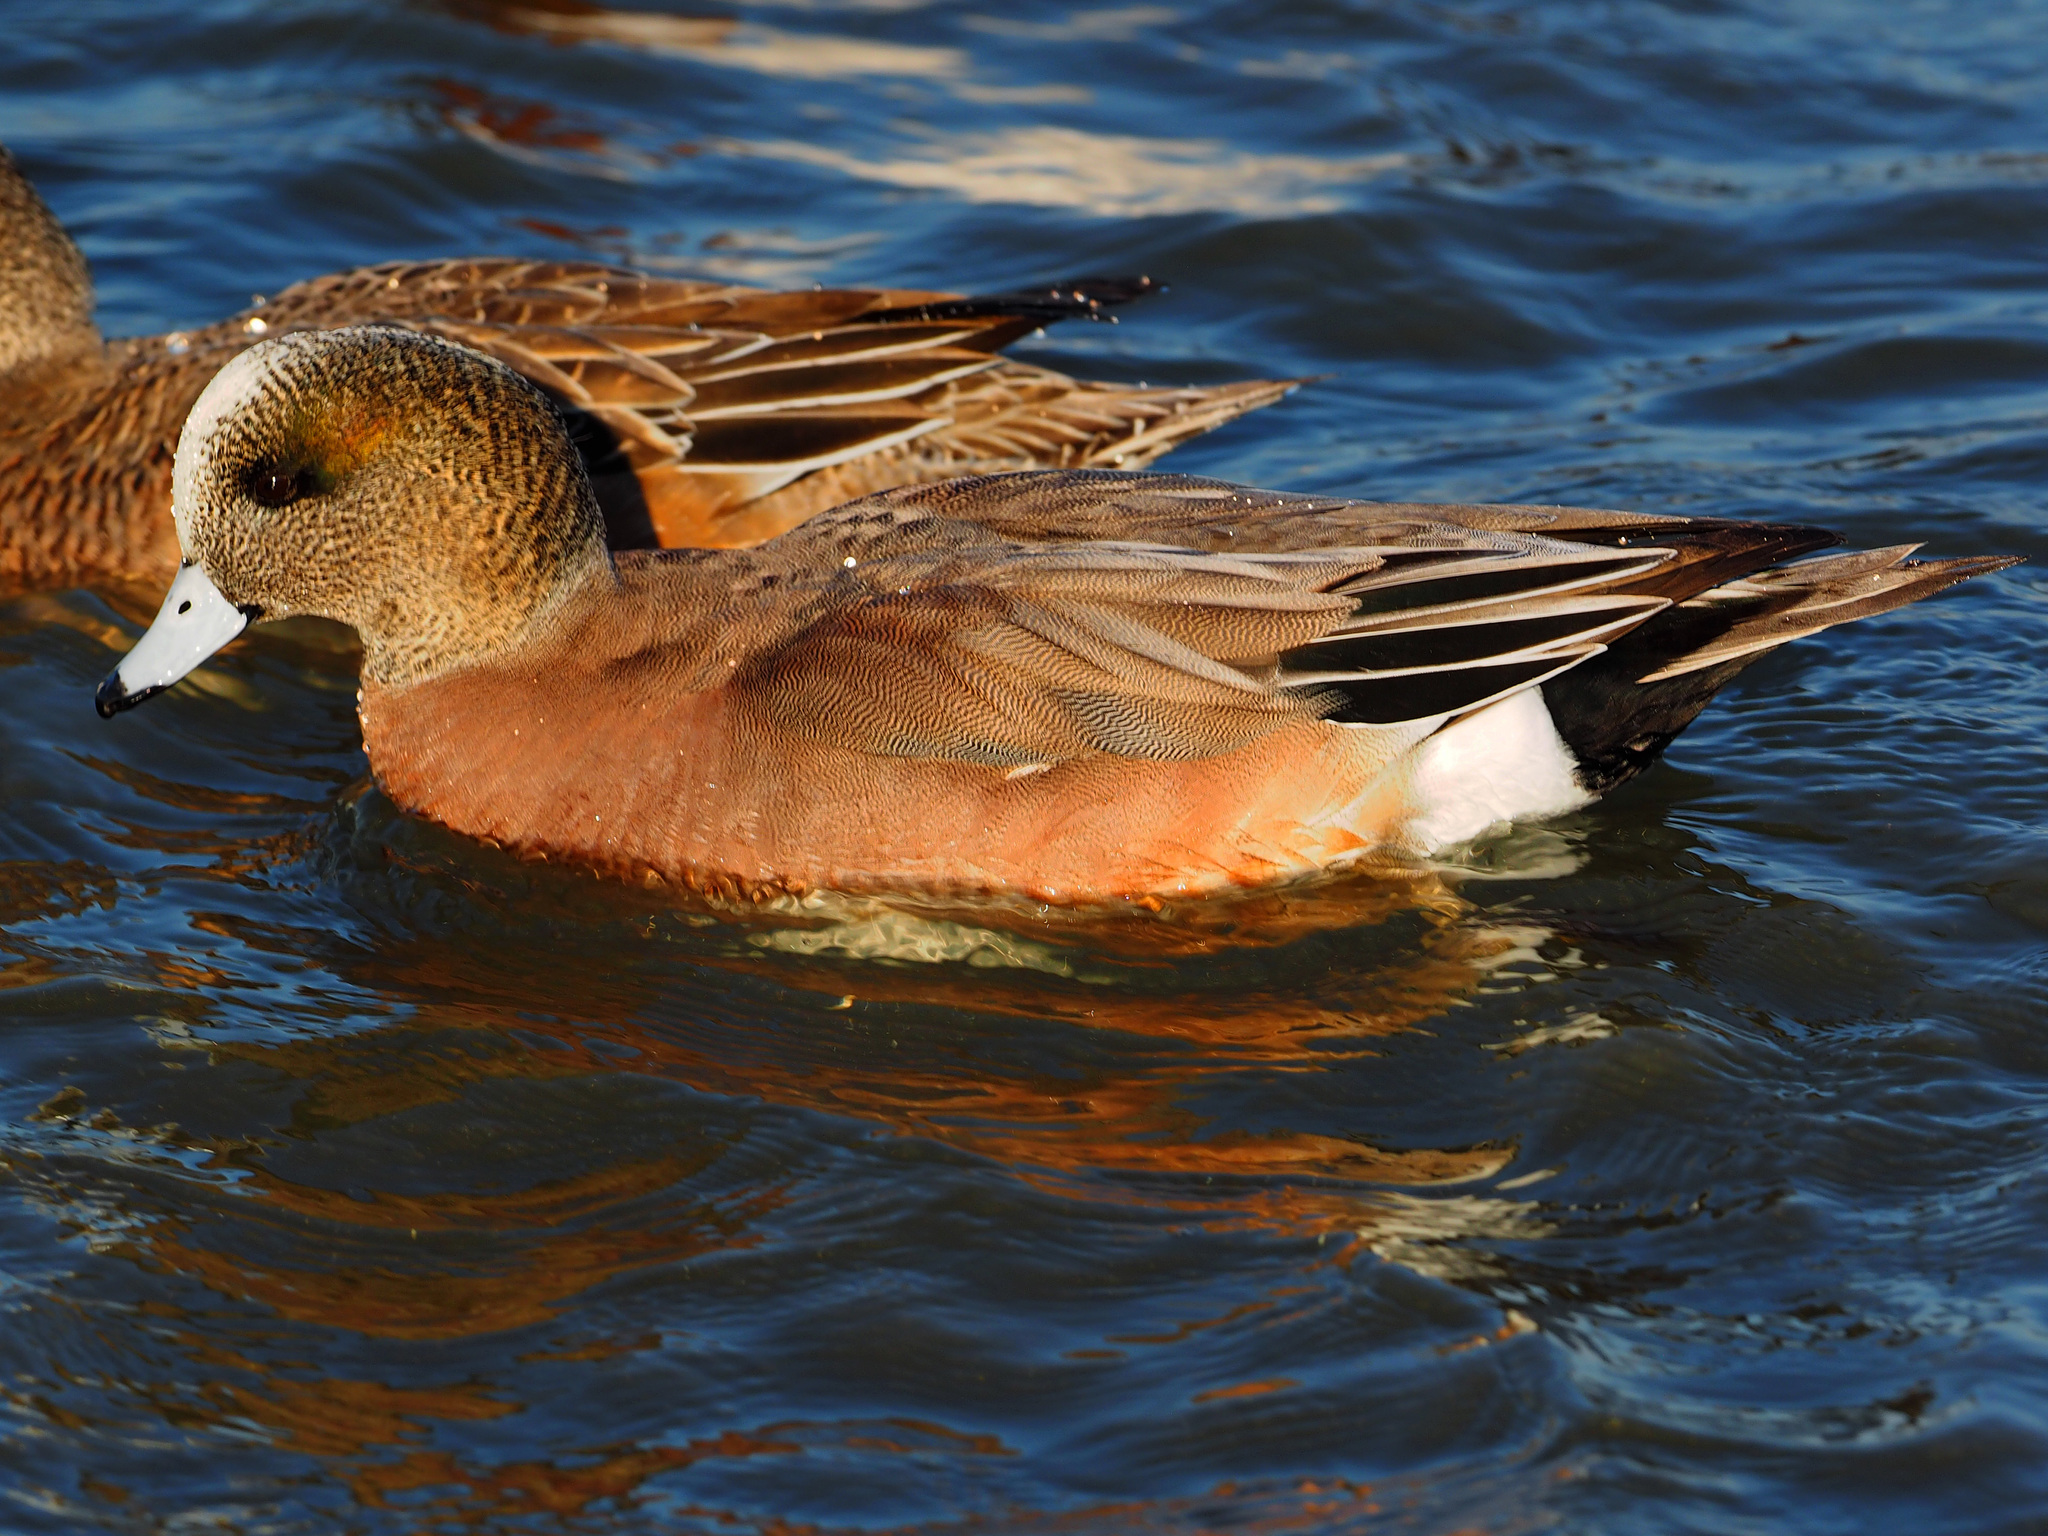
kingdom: Animalia
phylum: Chordata
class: Aves
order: Anseriformes
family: Anatidae
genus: Mareca
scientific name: Mareca americana
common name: American wigeon
